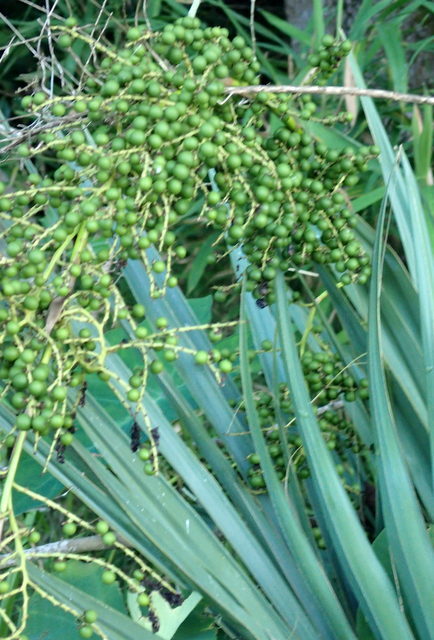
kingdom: Plantae
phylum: Tracheophyta
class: Liliopsida
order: Arecales
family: Arecaceae
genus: Sabal
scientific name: Sabal minor
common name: Dwarf palmetto
